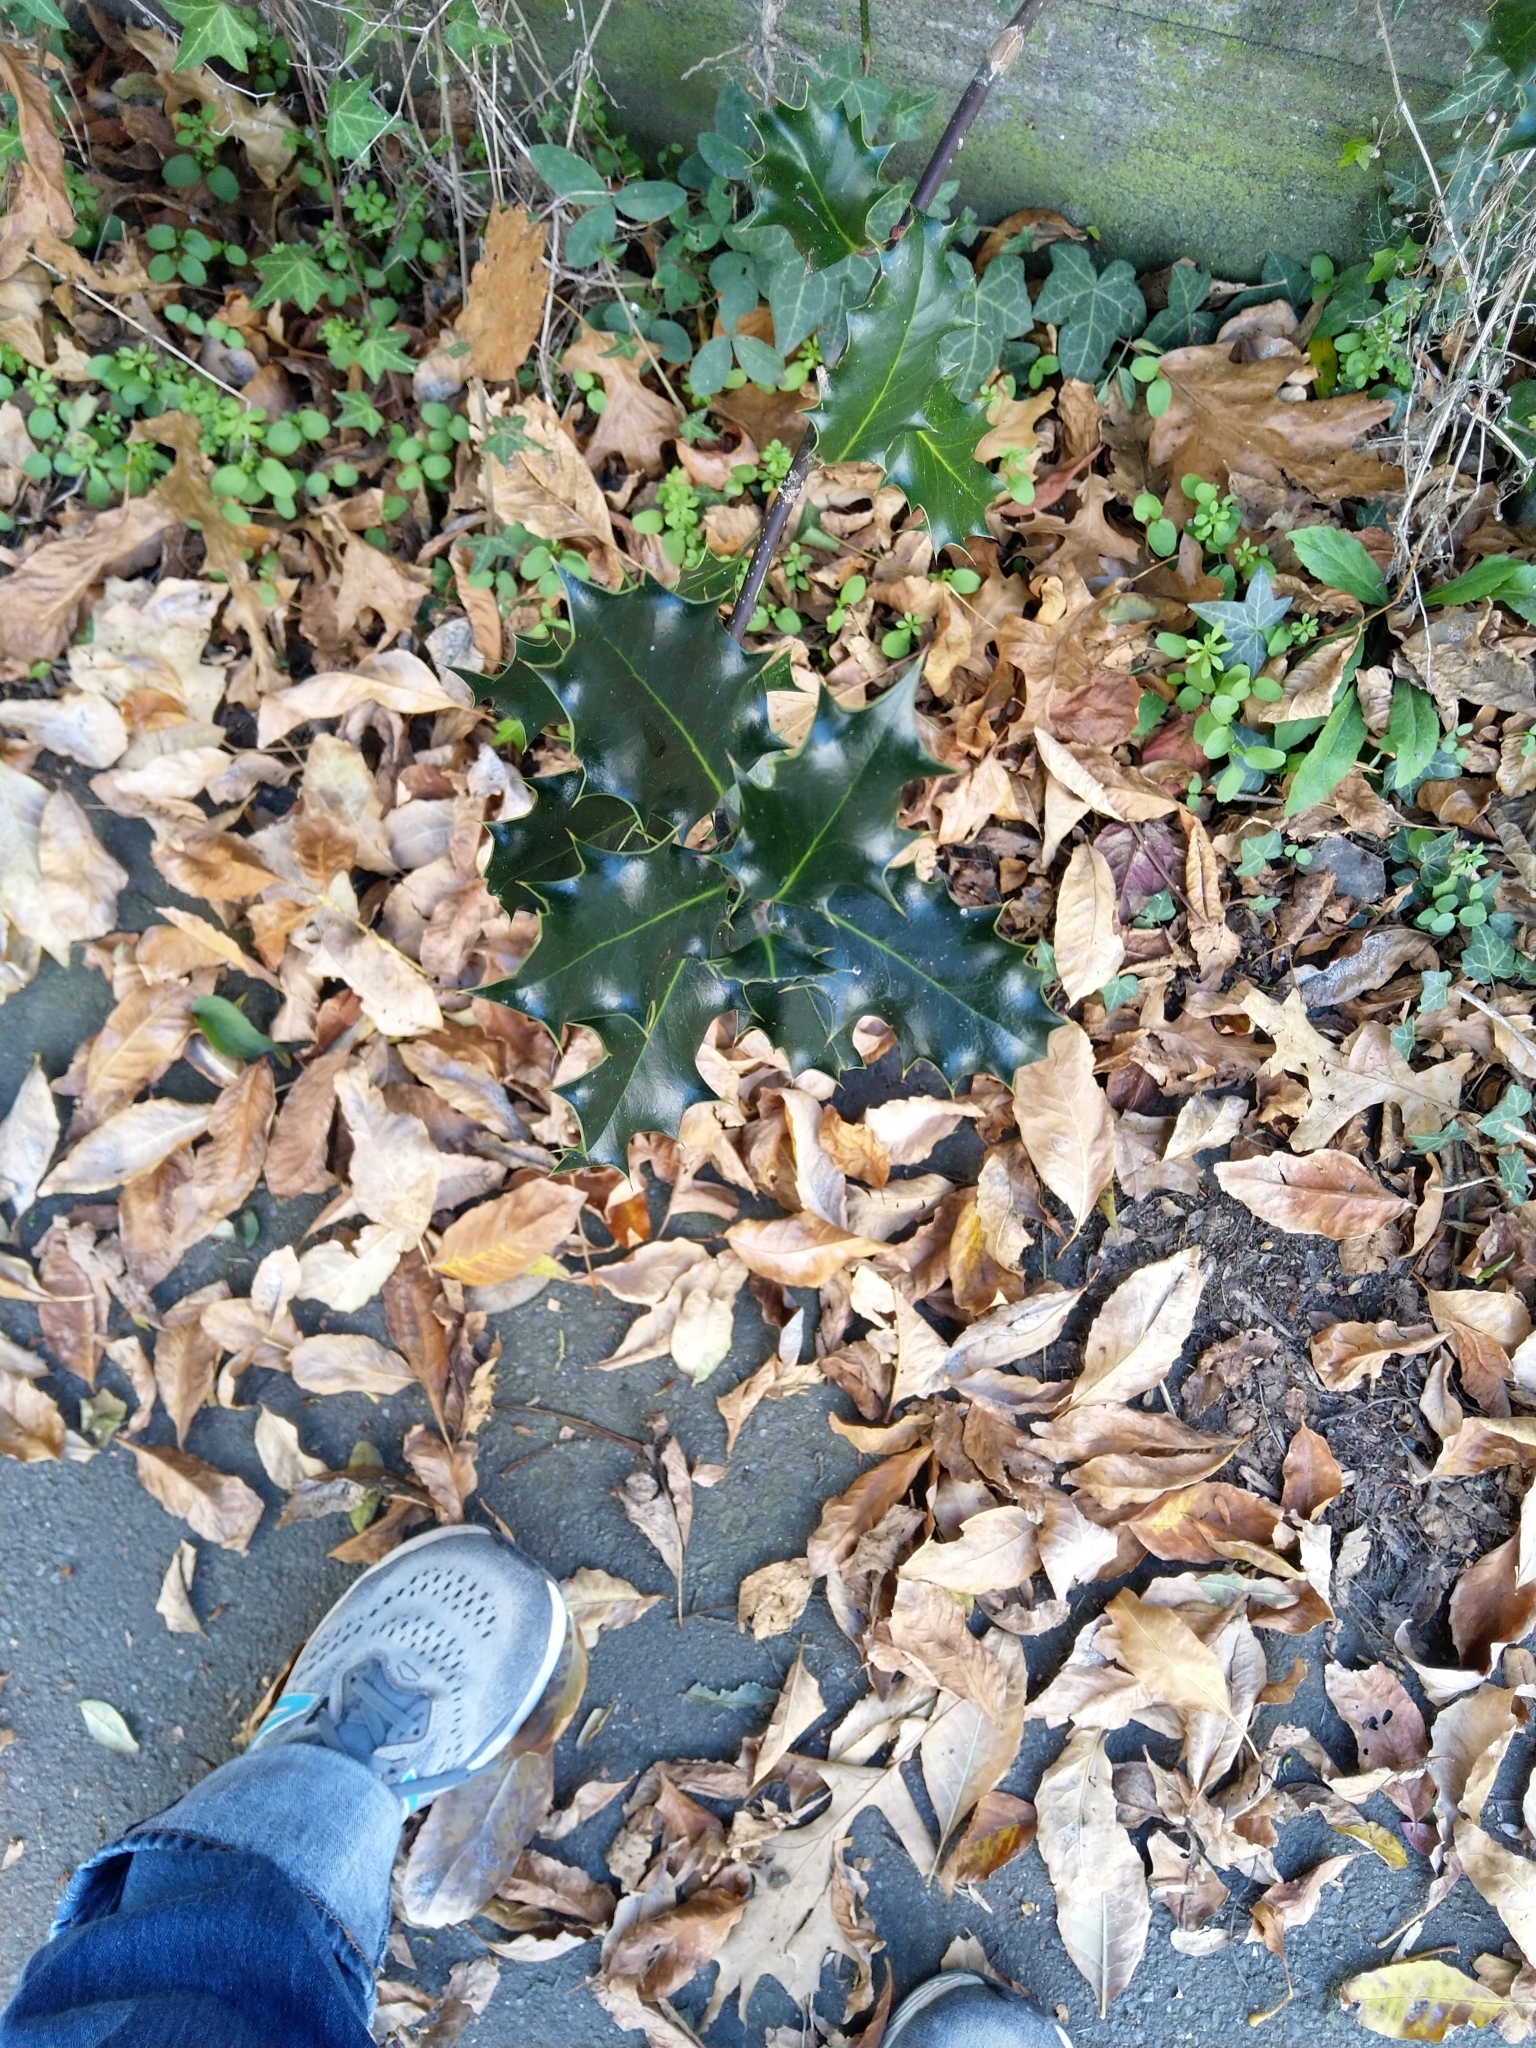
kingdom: Plantae
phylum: Tracheophyta
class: Magnoliopsida
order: Aquifoliales
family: Aquifoliaceae
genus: Ilex
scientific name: Ilex aquifolium
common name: English holly
